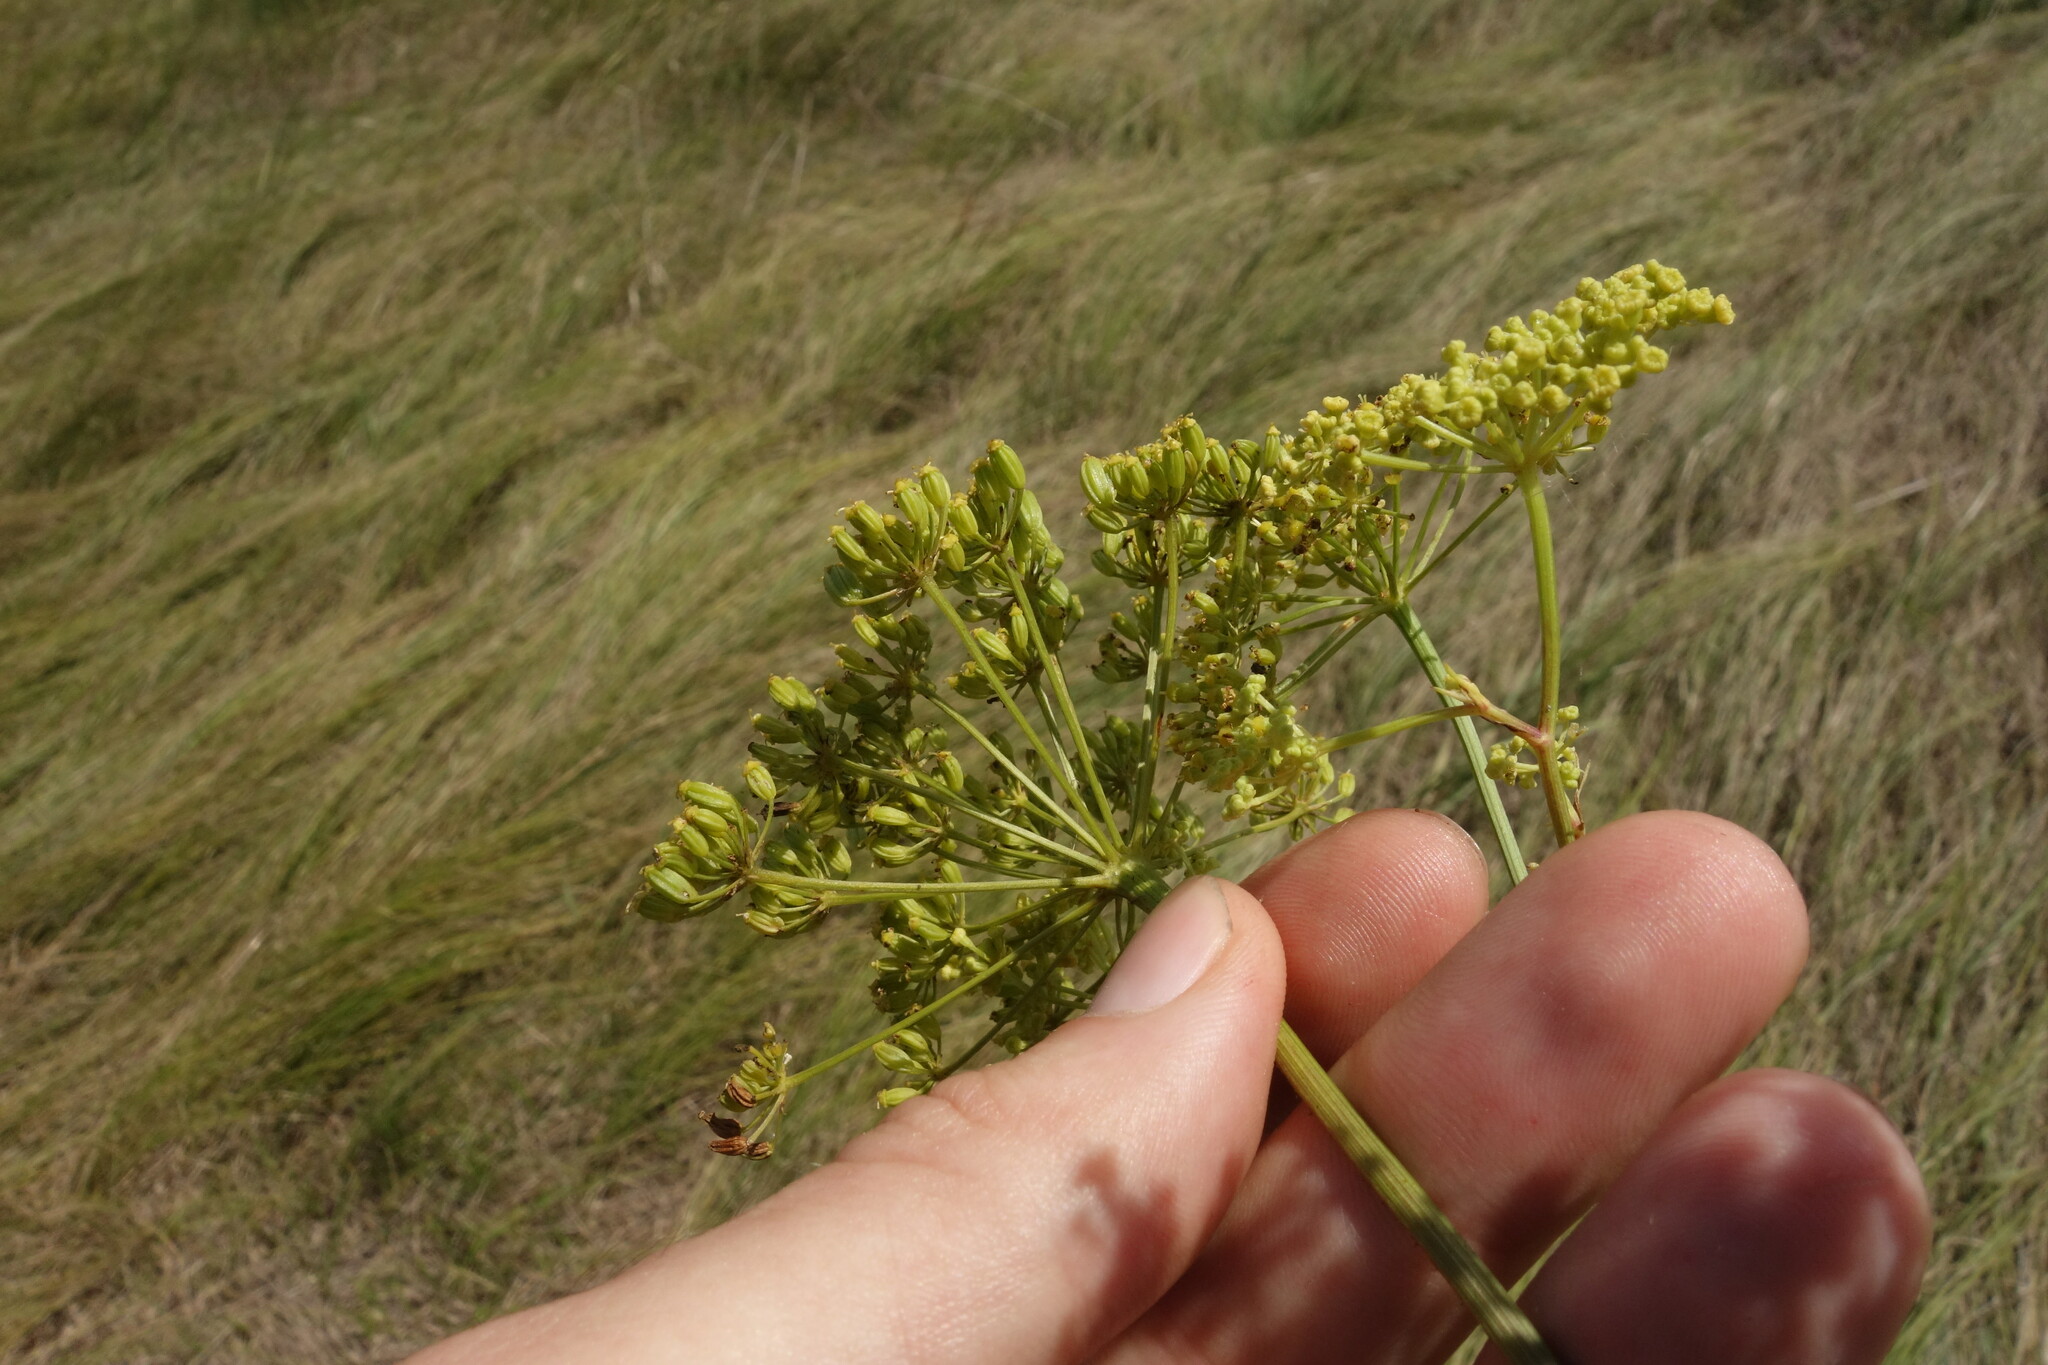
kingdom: Plantae
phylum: Tracheophyta
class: Magnoliopsida
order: Apiales
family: Apiaceae
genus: Silaum
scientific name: Silaum silaus
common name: Pepper-saxifrage
